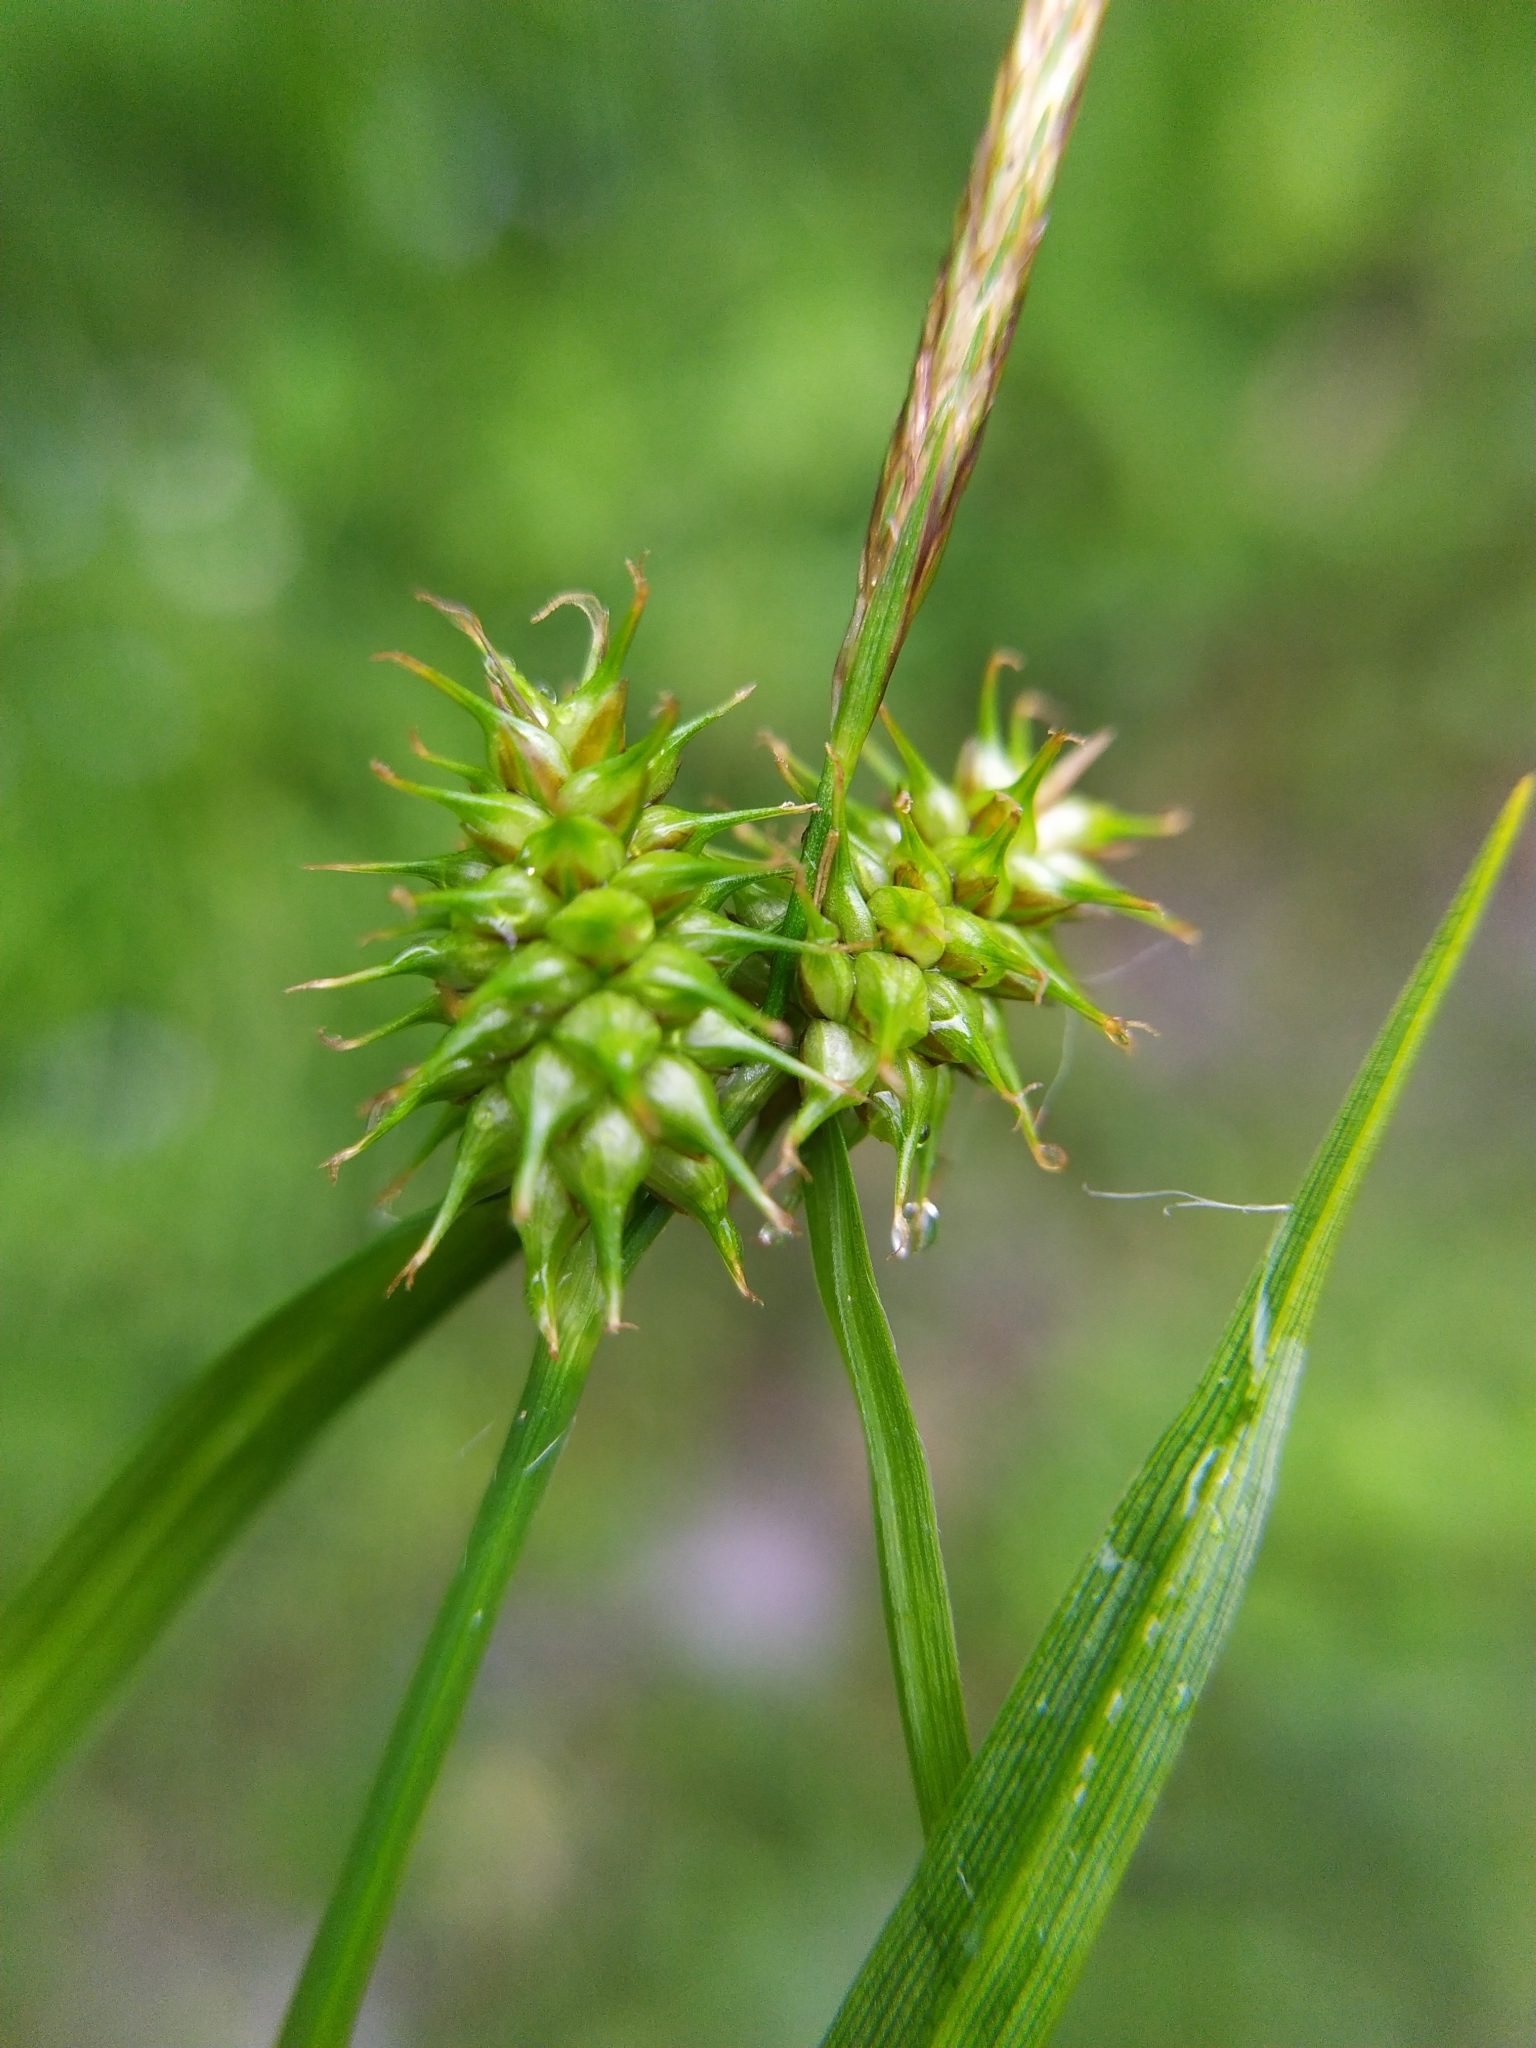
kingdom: Plantae
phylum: Tracheophyta
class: Liliopsida
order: Poales
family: Cyperaceae
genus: Carex
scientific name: Carex flava
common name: Large yellow-sedge
